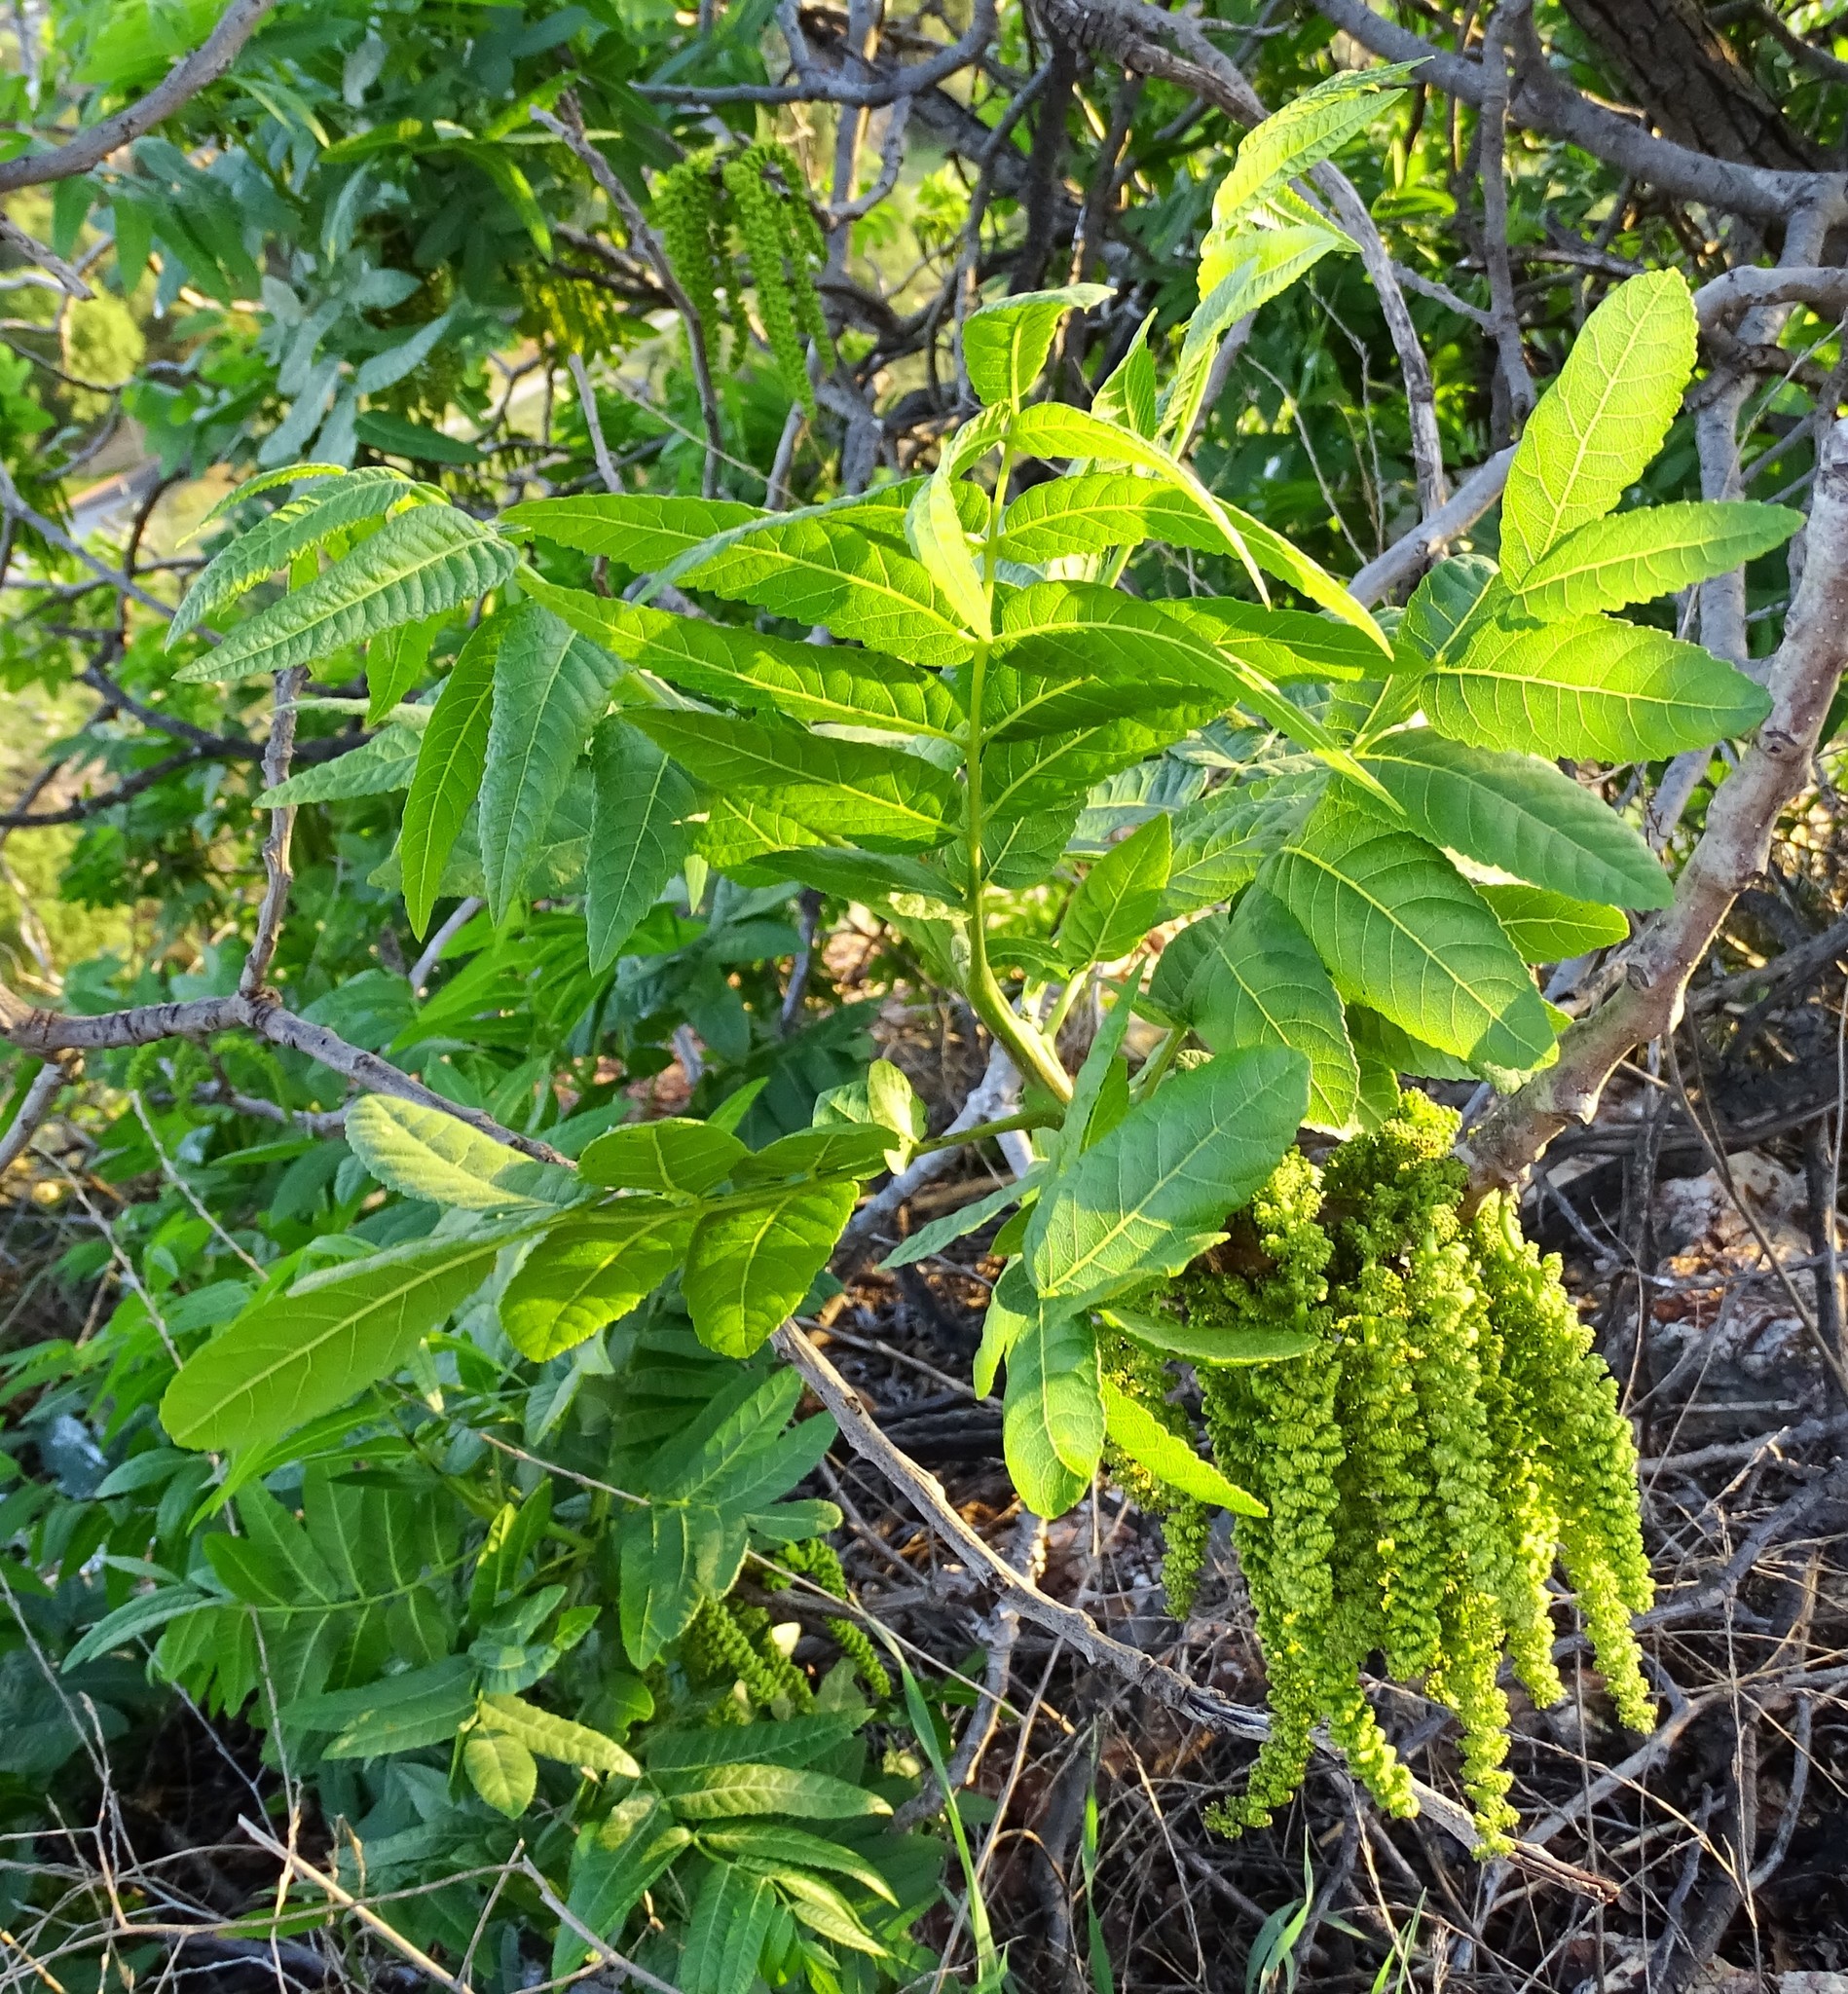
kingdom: Plantae
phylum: Tracheophyta
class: Magnoliopsida
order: Fagales
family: Juglandaceae
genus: Juglans
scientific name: Juglans californica
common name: Southern california black walnut
